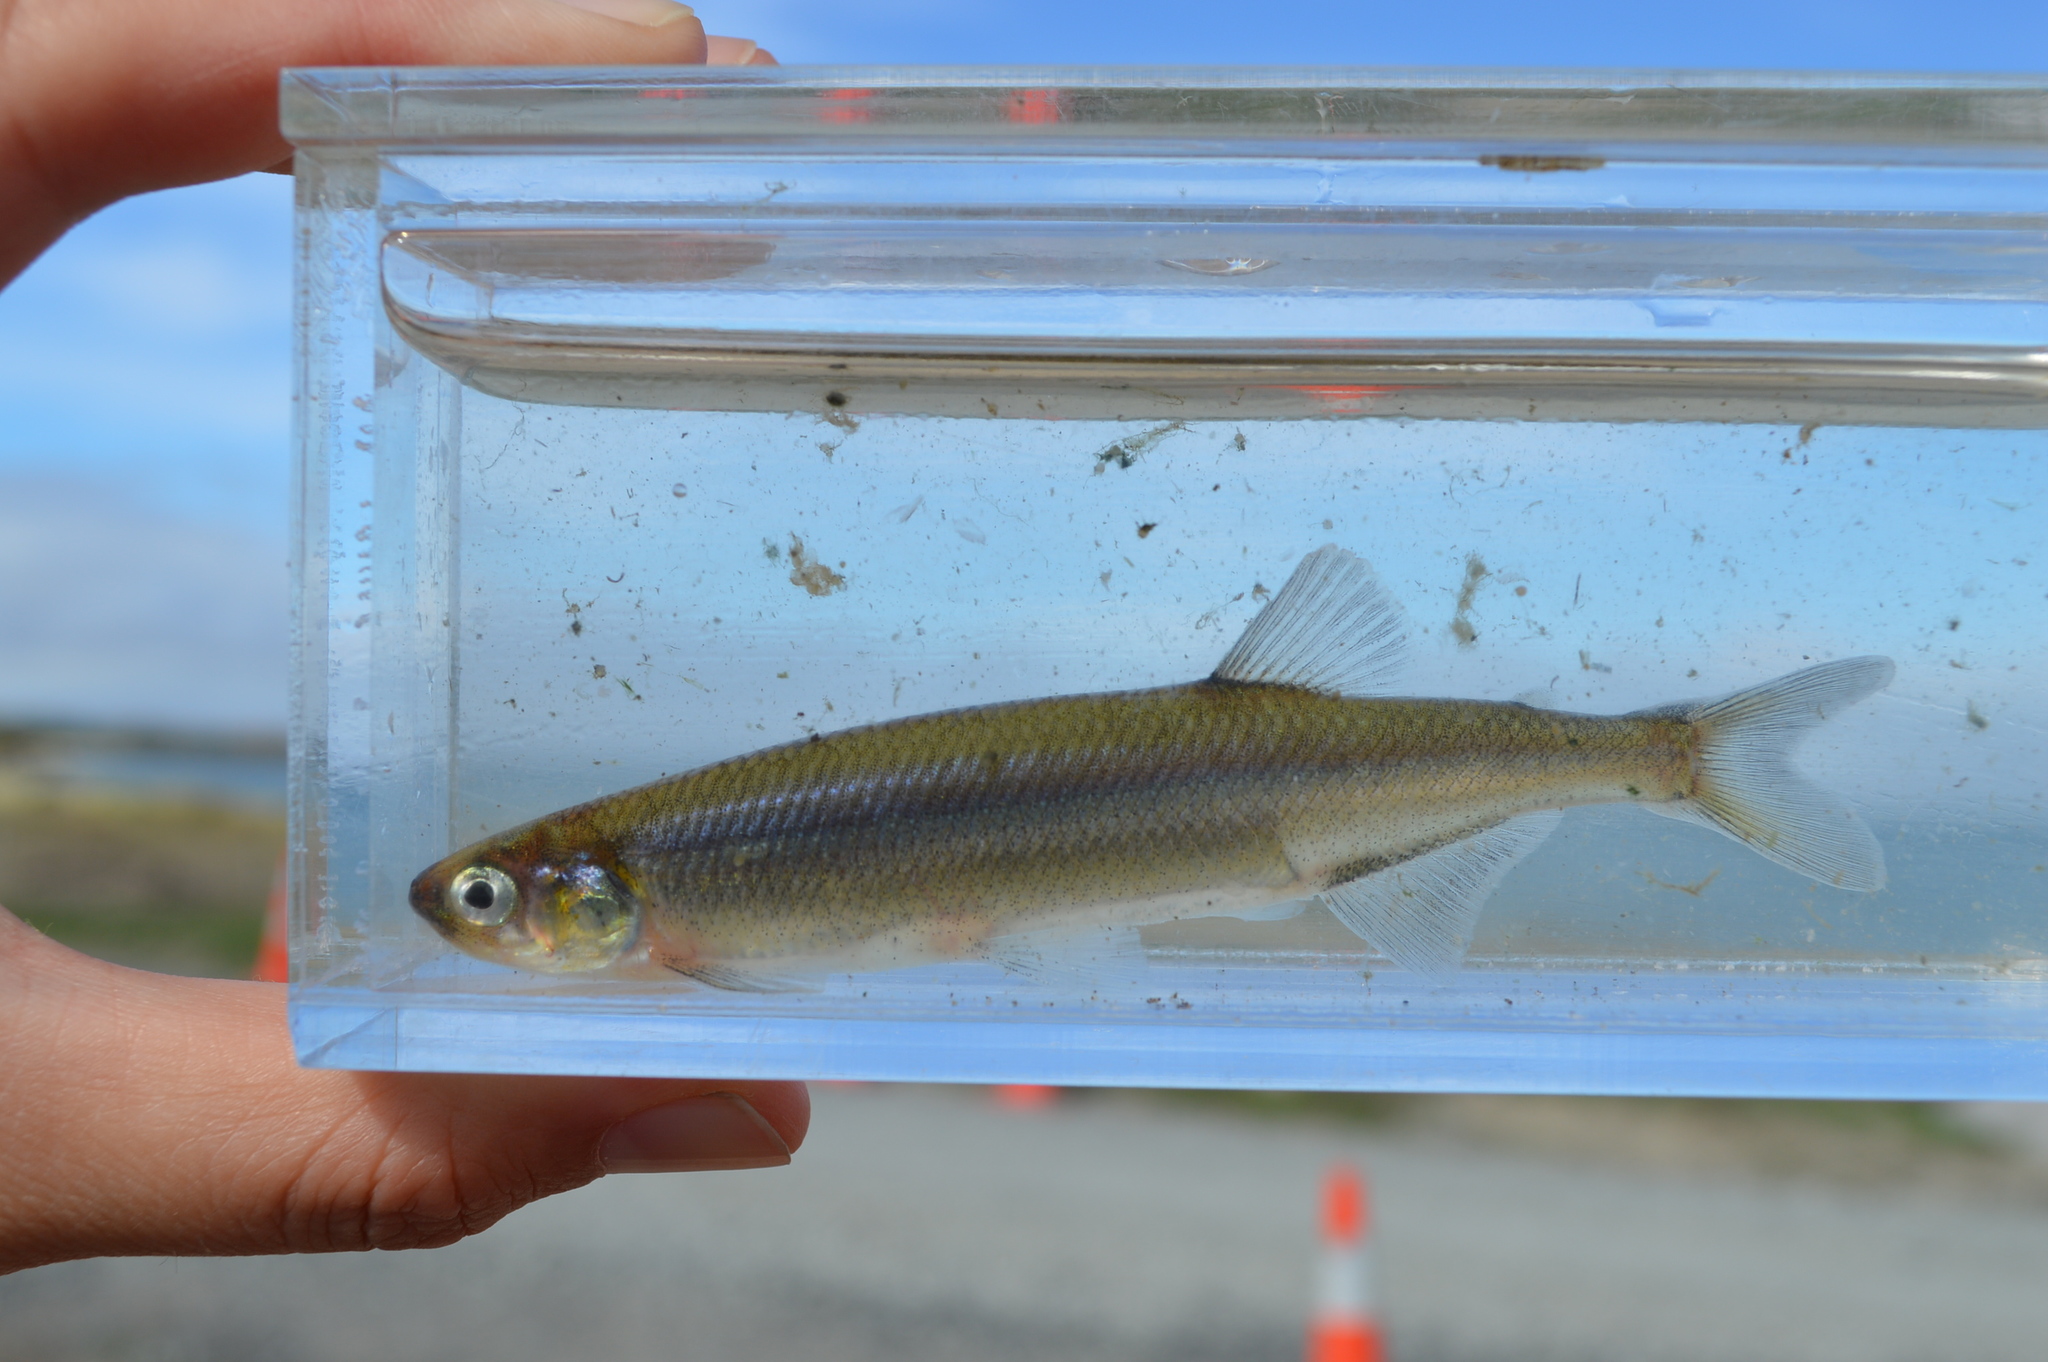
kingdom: Animalia
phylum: Chordata
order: Osmeriformes
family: Retropinnidae
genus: Retropinna
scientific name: Retropinna retropinna
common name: Common smelt
